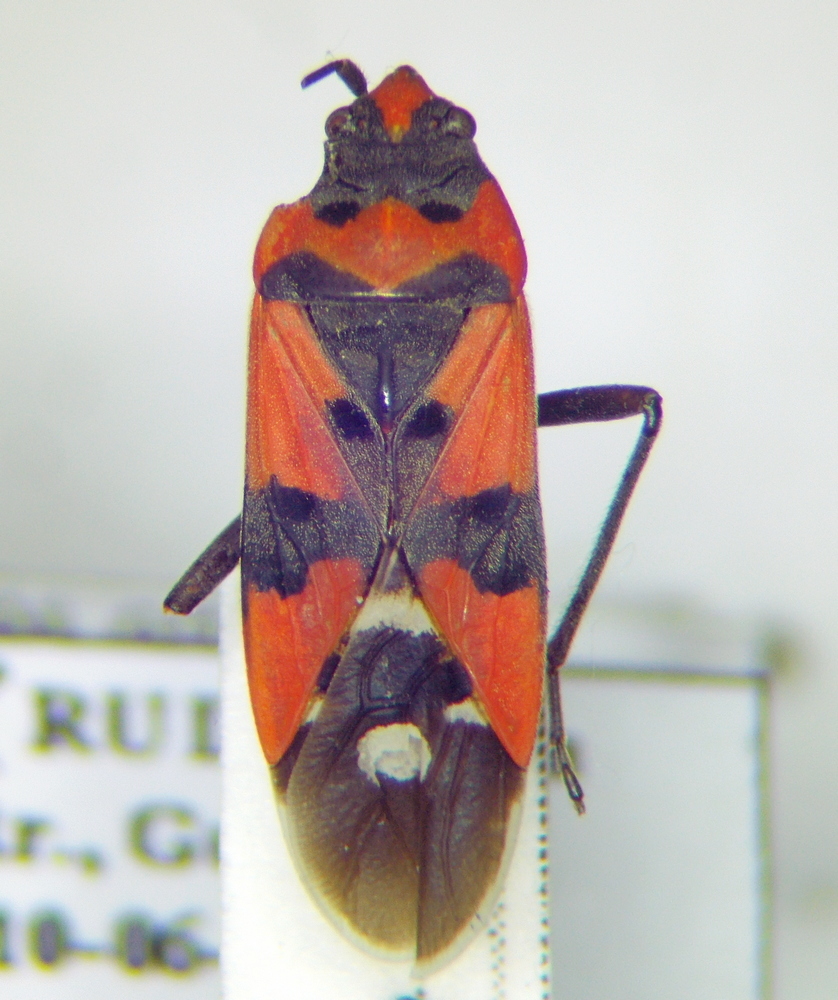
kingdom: Animalia
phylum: Arthropoda
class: Insecta
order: Hemiptera
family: Lygaeidae
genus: Lygaeus
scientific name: Lygaeus equestris
